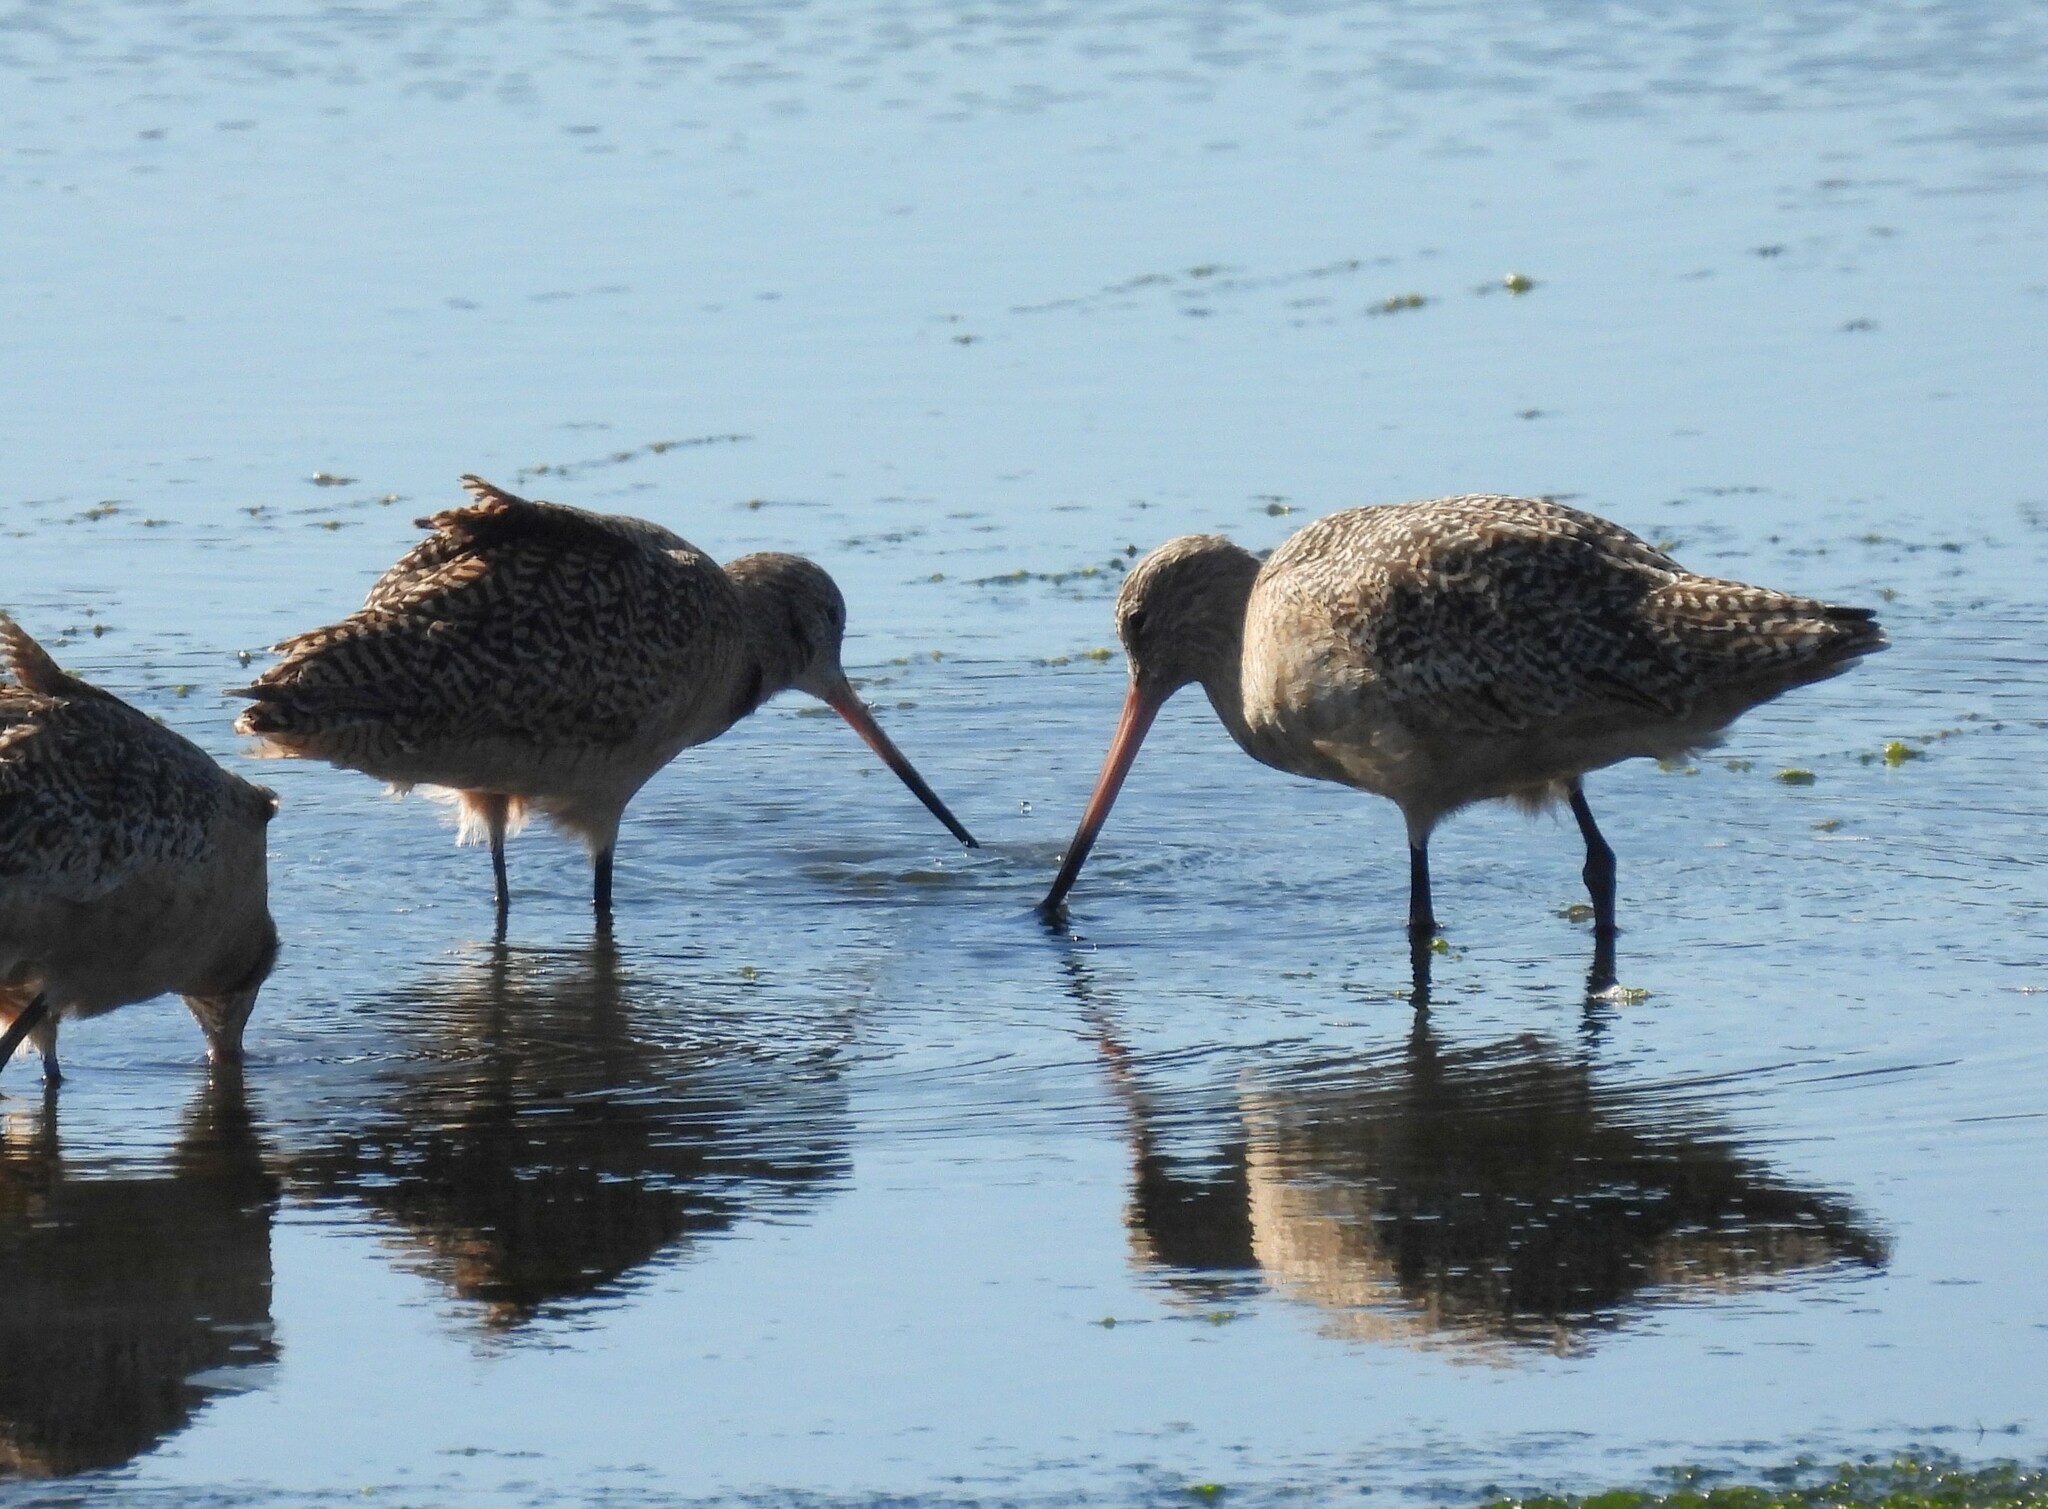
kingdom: Animalia
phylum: Chordata
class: Aves
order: Charadriiformes
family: Scolopacidae
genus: Limosa
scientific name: Limosa fedoa
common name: Marbled godwit
